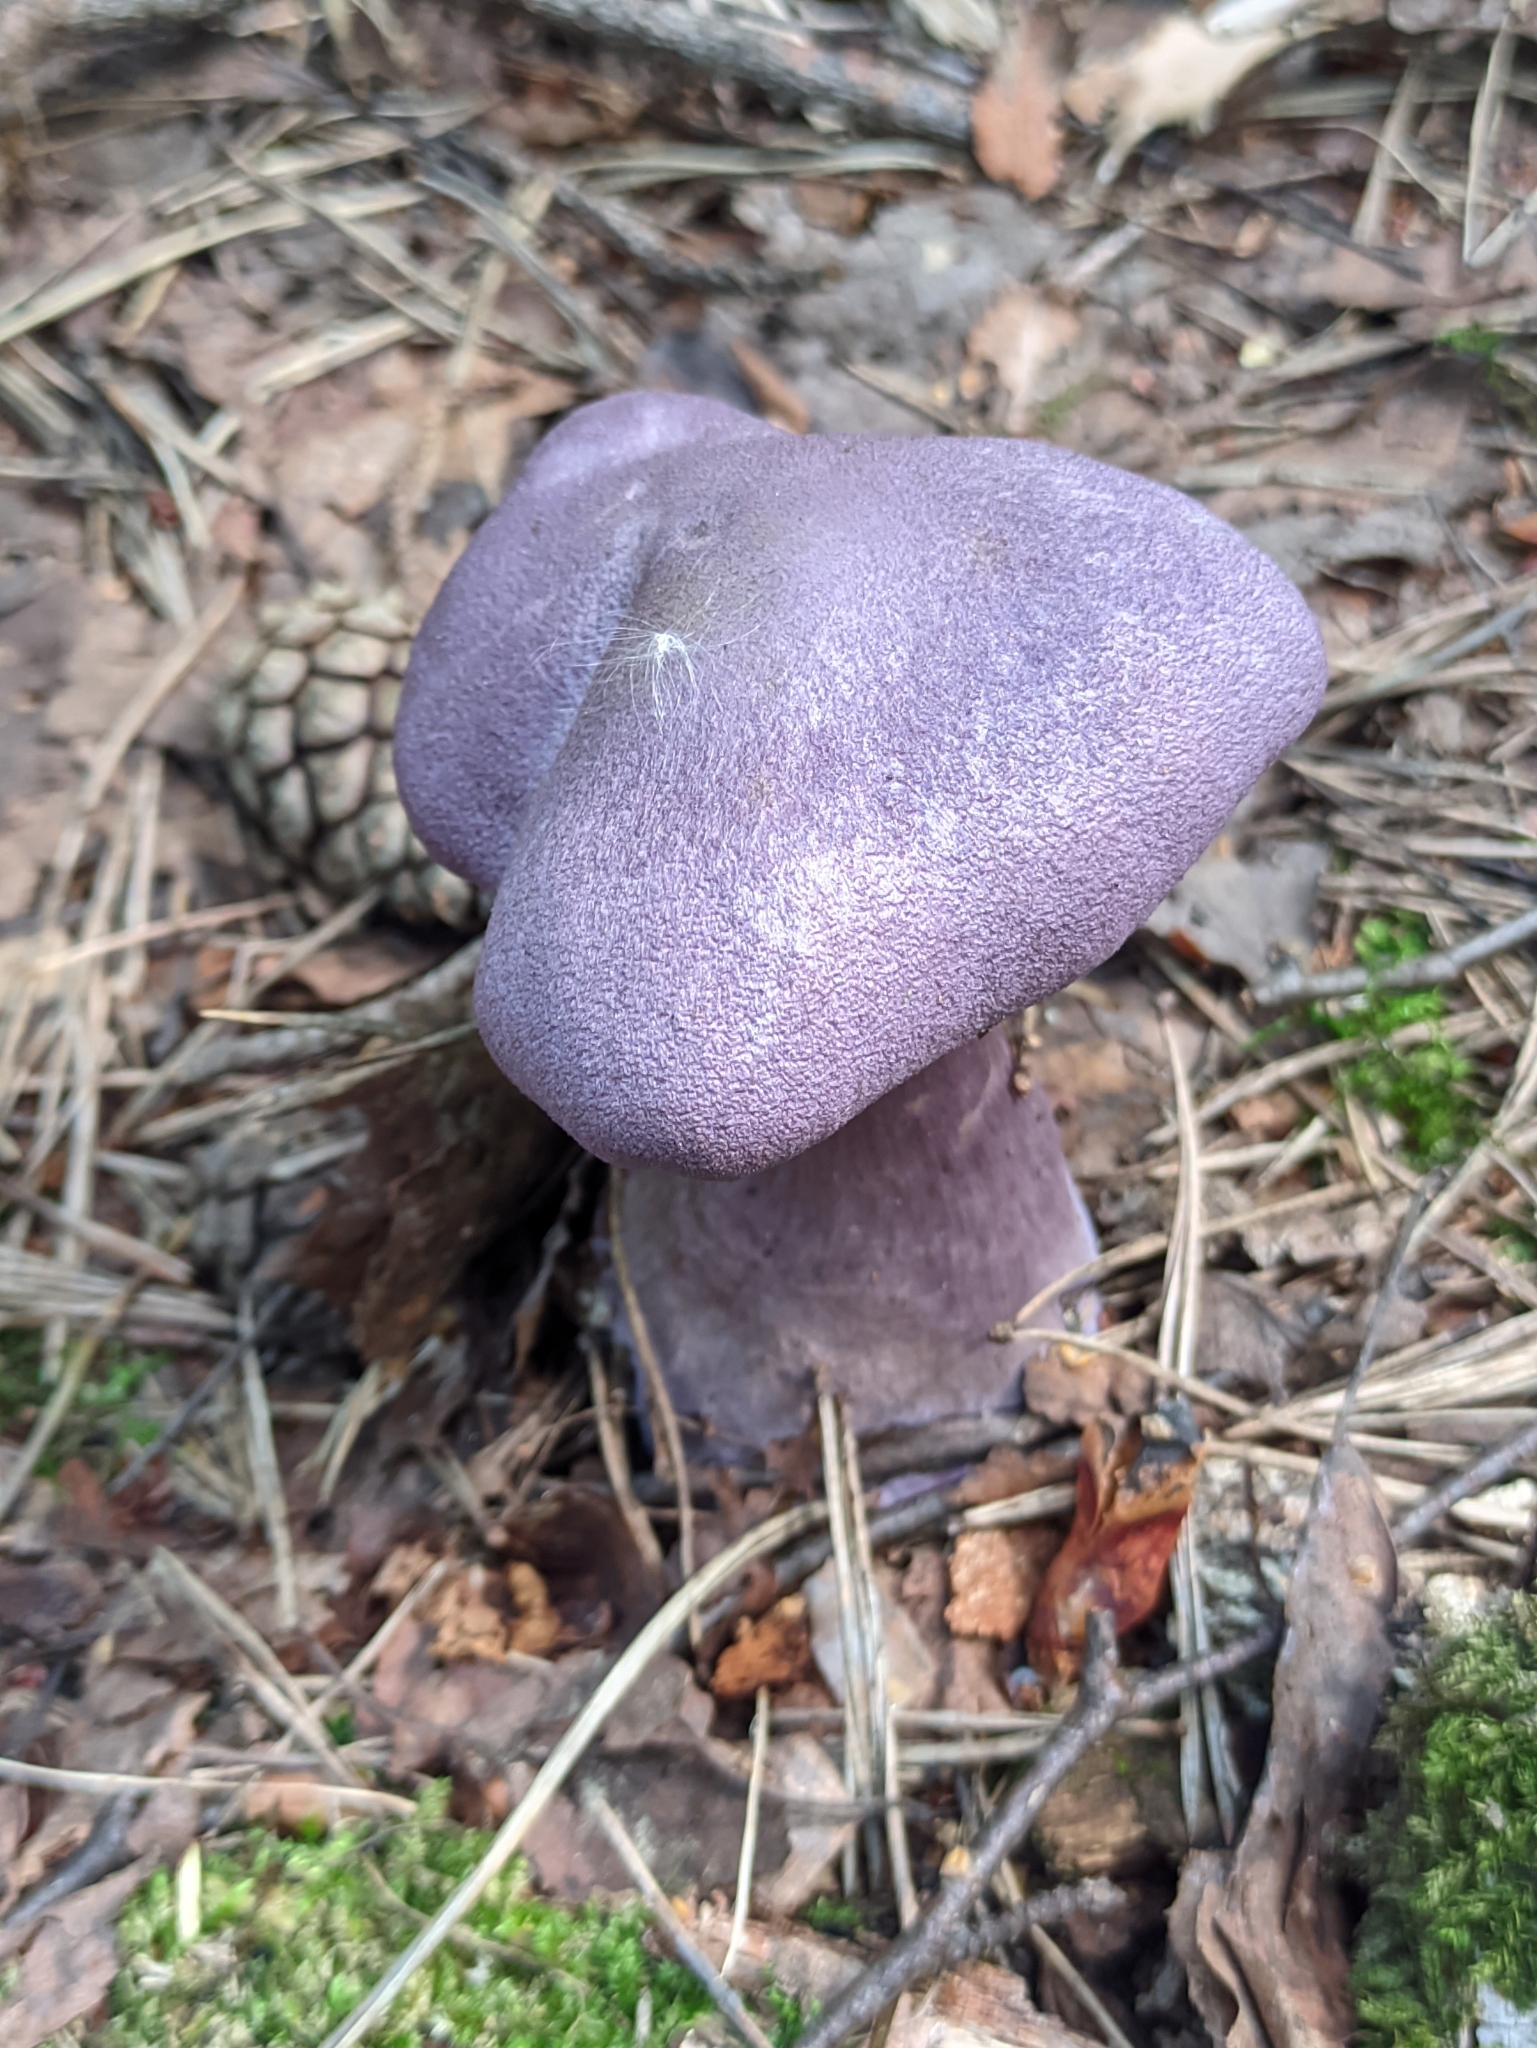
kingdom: Fungi
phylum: Basidiomycota
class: Agaricomycetes
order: Agaricales
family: Cortinariaceae
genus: Cortinarius
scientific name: Cortinarius violaceus
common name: Violet webcap
